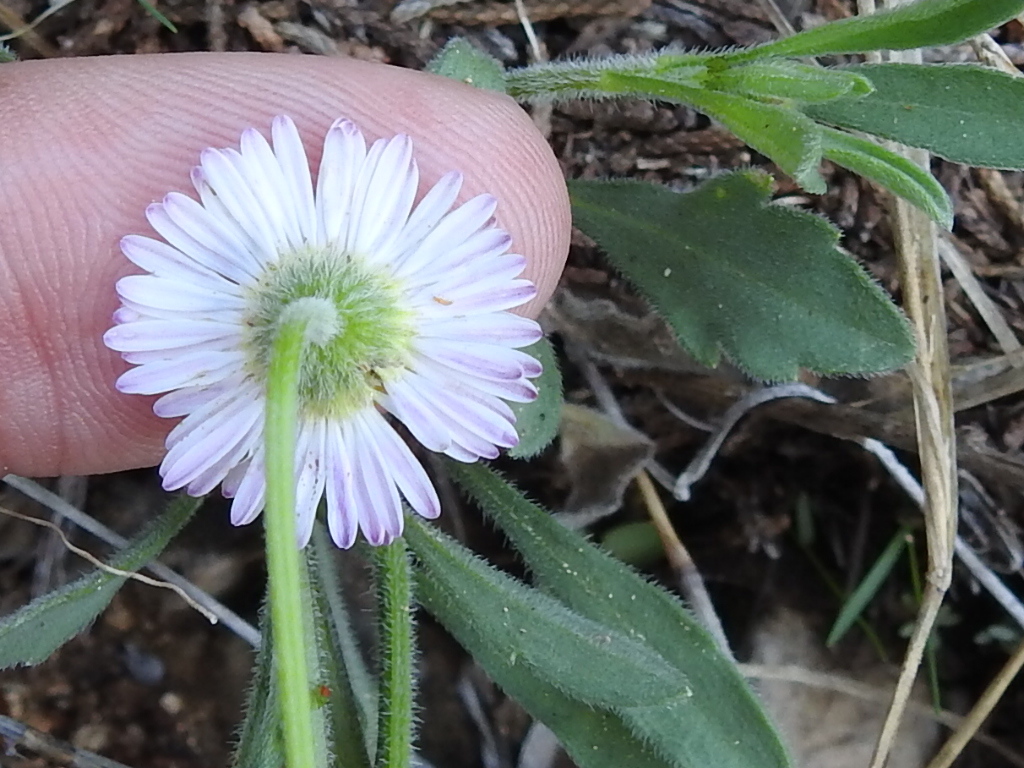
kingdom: Plantae
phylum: Tracheophyta
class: Magnoliopsida
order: Asterales
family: Asteraceae
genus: Erigeron
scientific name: Erigeron strigosus
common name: Common eastern fleabane
